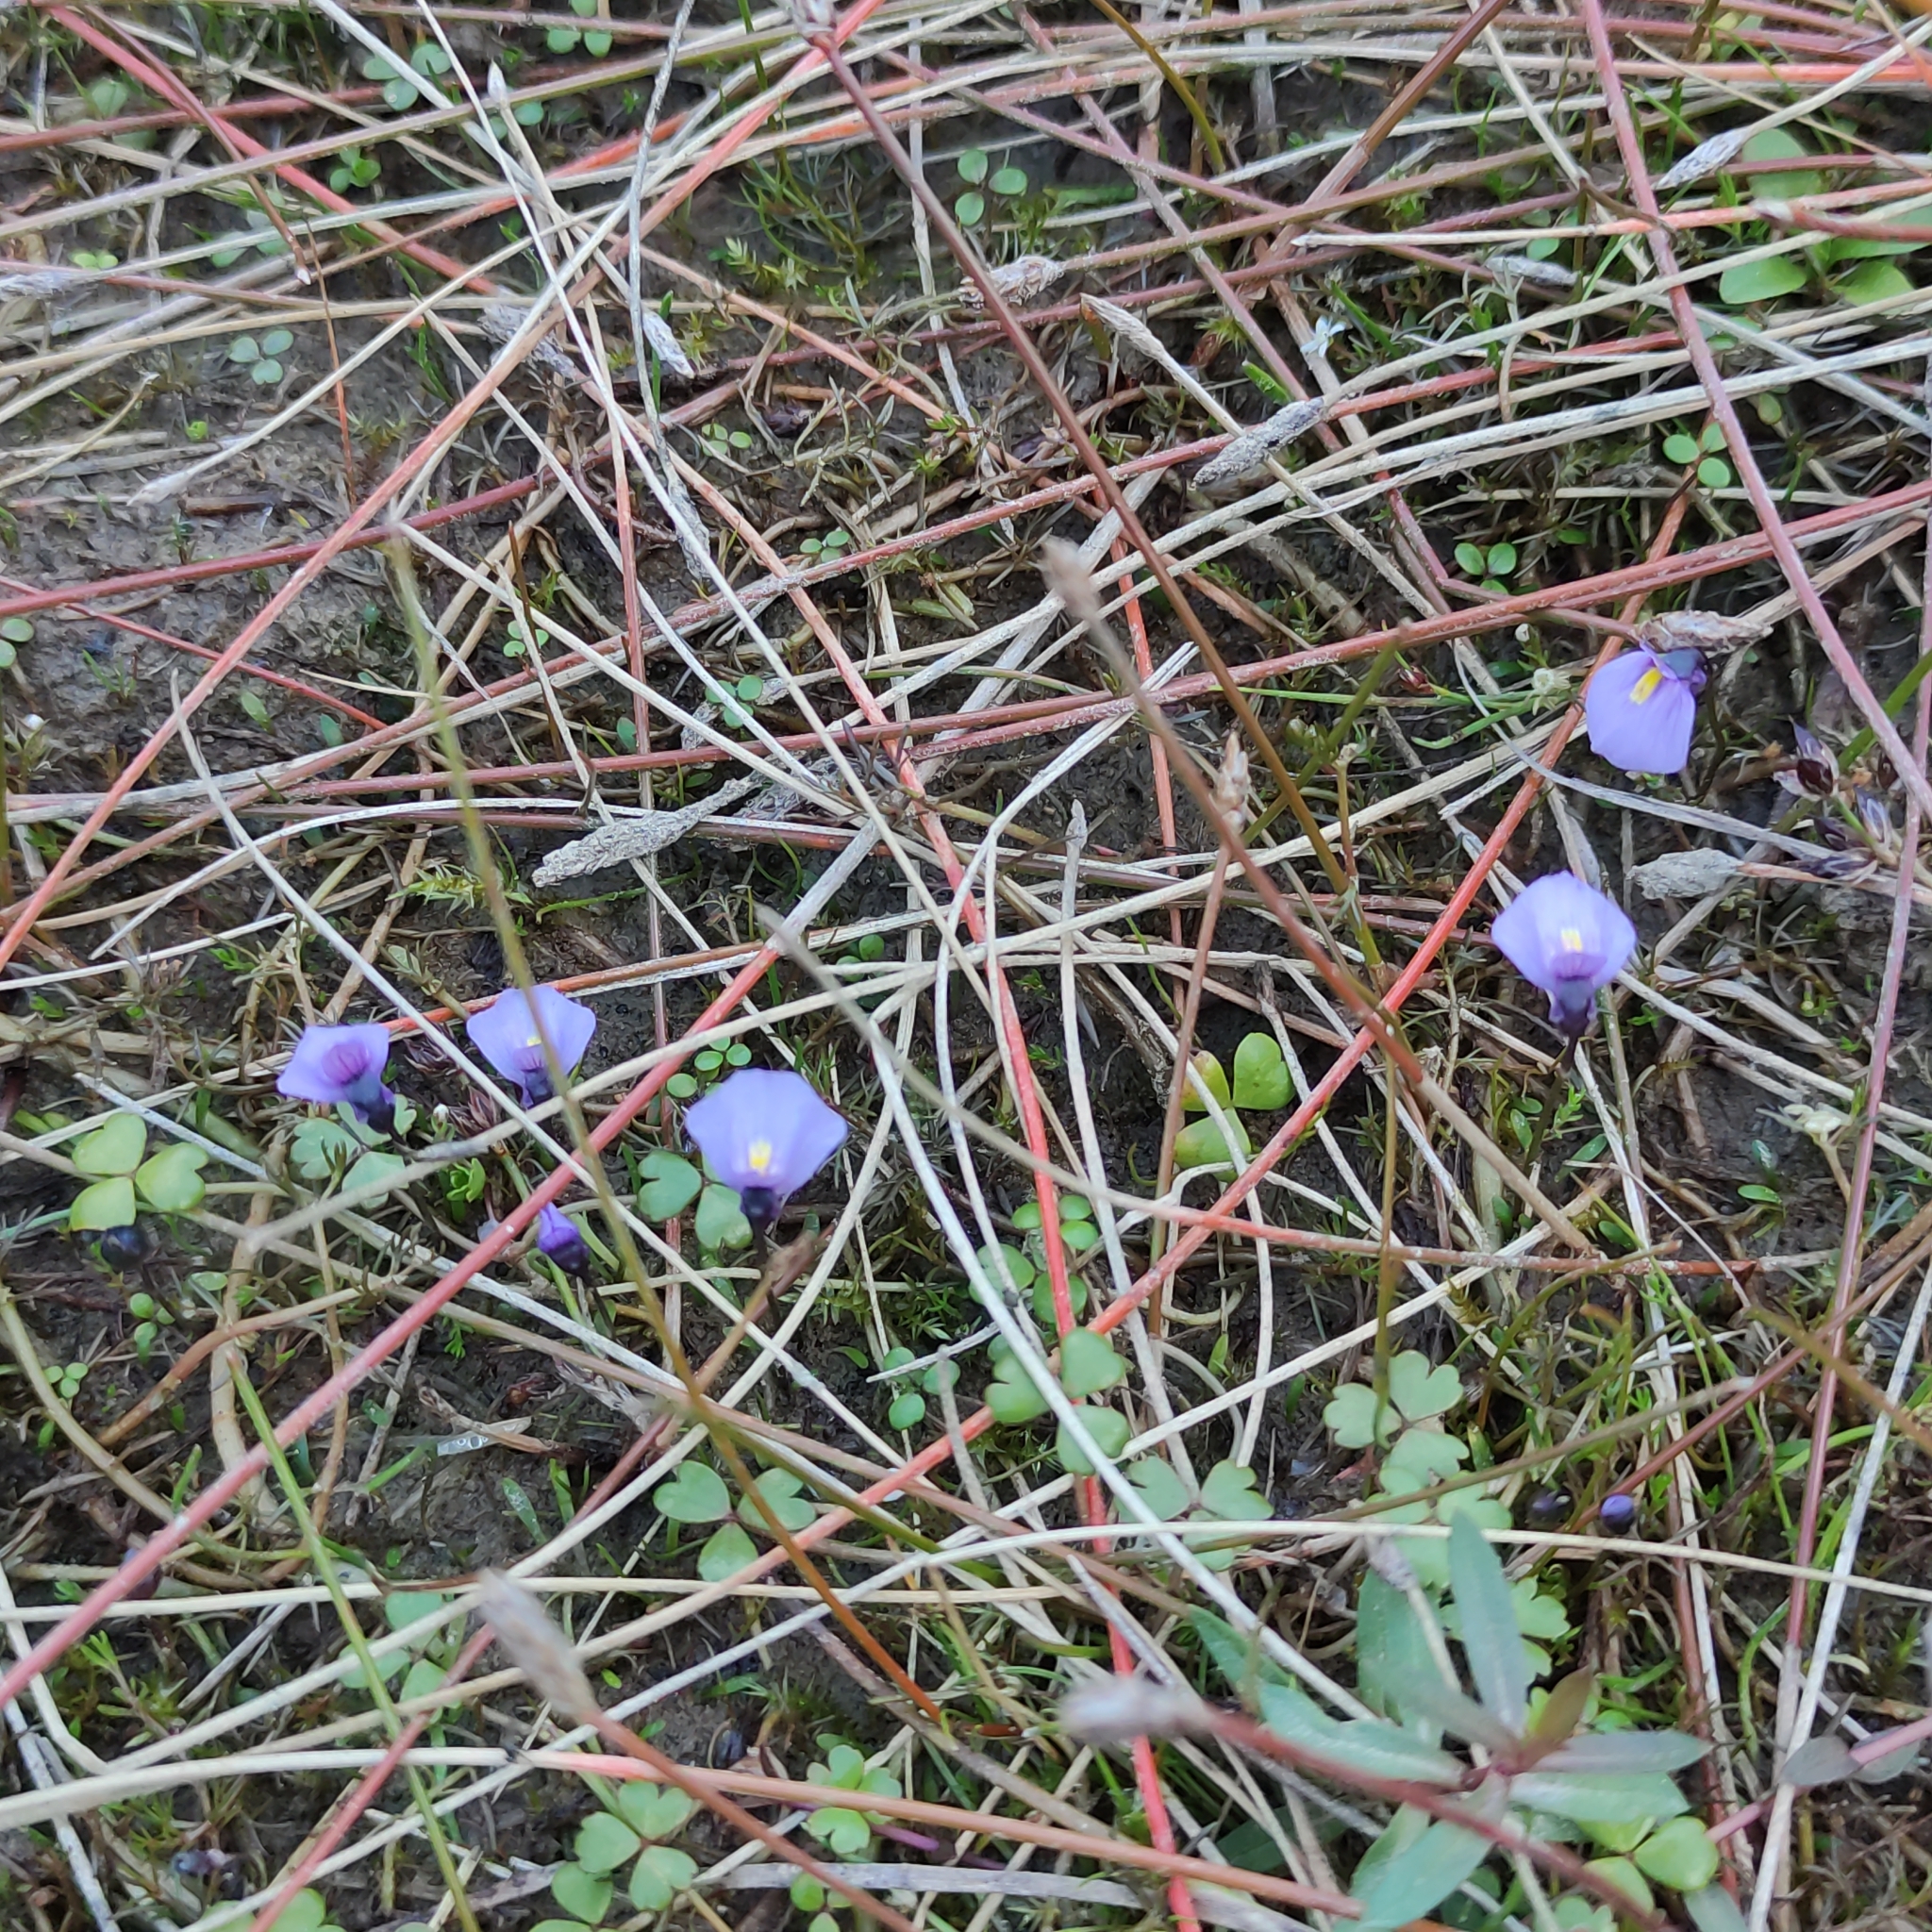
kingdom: Plantae
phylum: Tracheophyta
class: Magnoliopsida
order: Lamiales
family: Lentibulariaceae
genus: Utricularia
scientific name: Utricularia dichotoma
